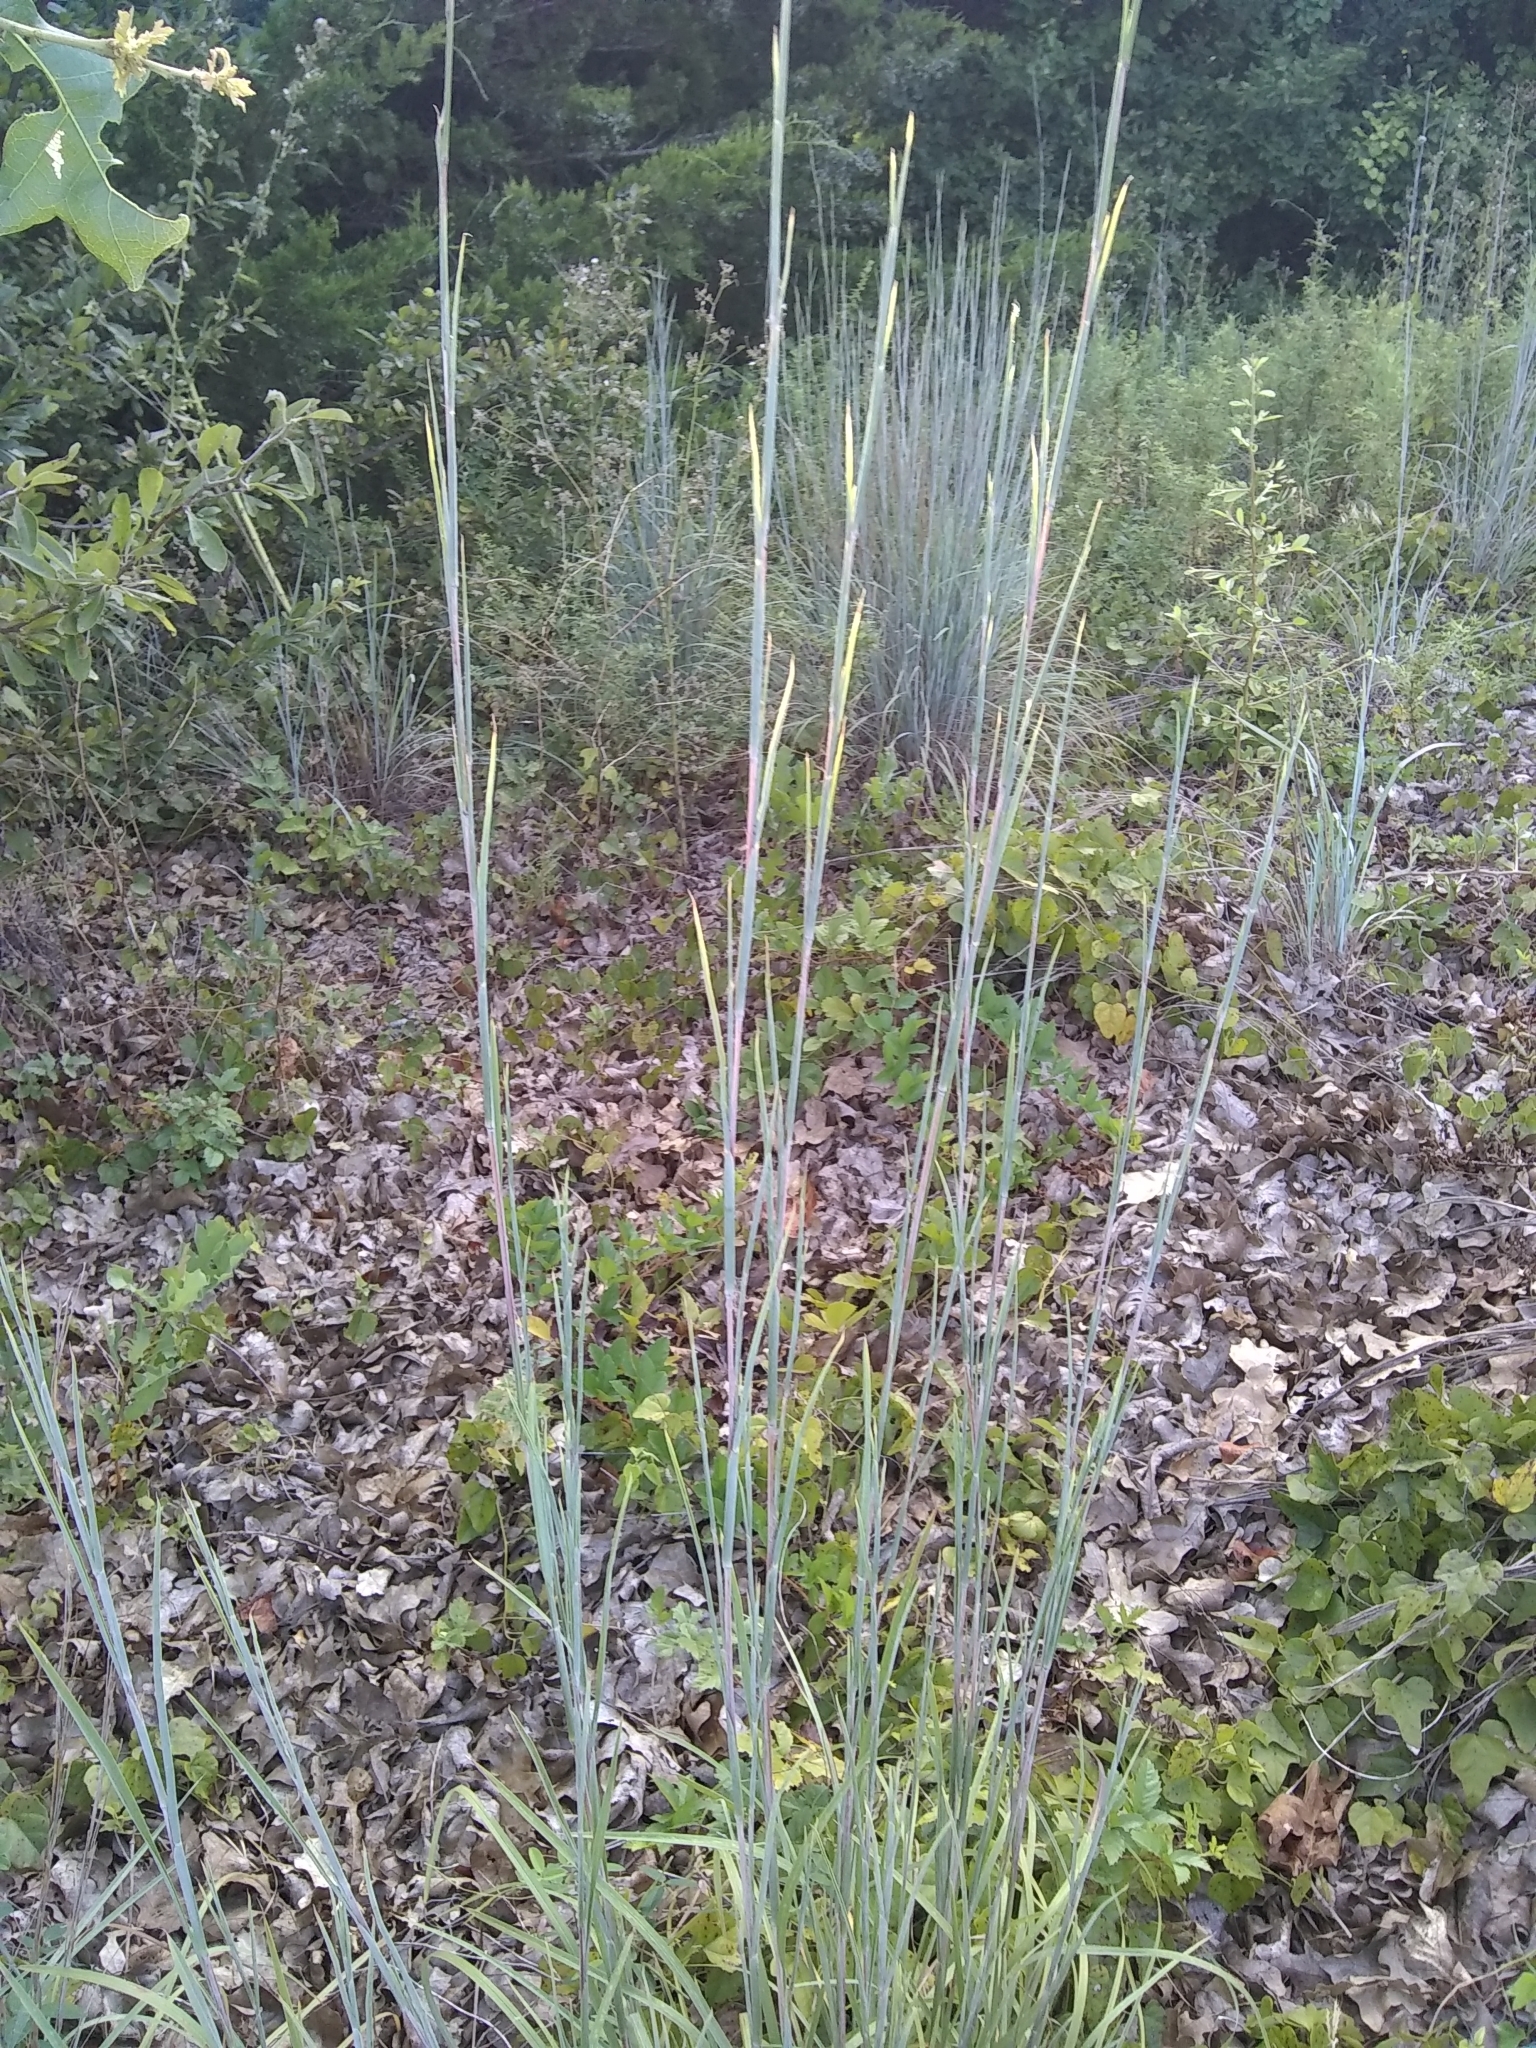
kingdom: Plantae
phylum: Tracheophyta
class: Liliopsida
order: Poales
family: Poaceae
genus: Schizachyrium
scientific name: Schizachyrium scoparium
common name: Little bluestem
